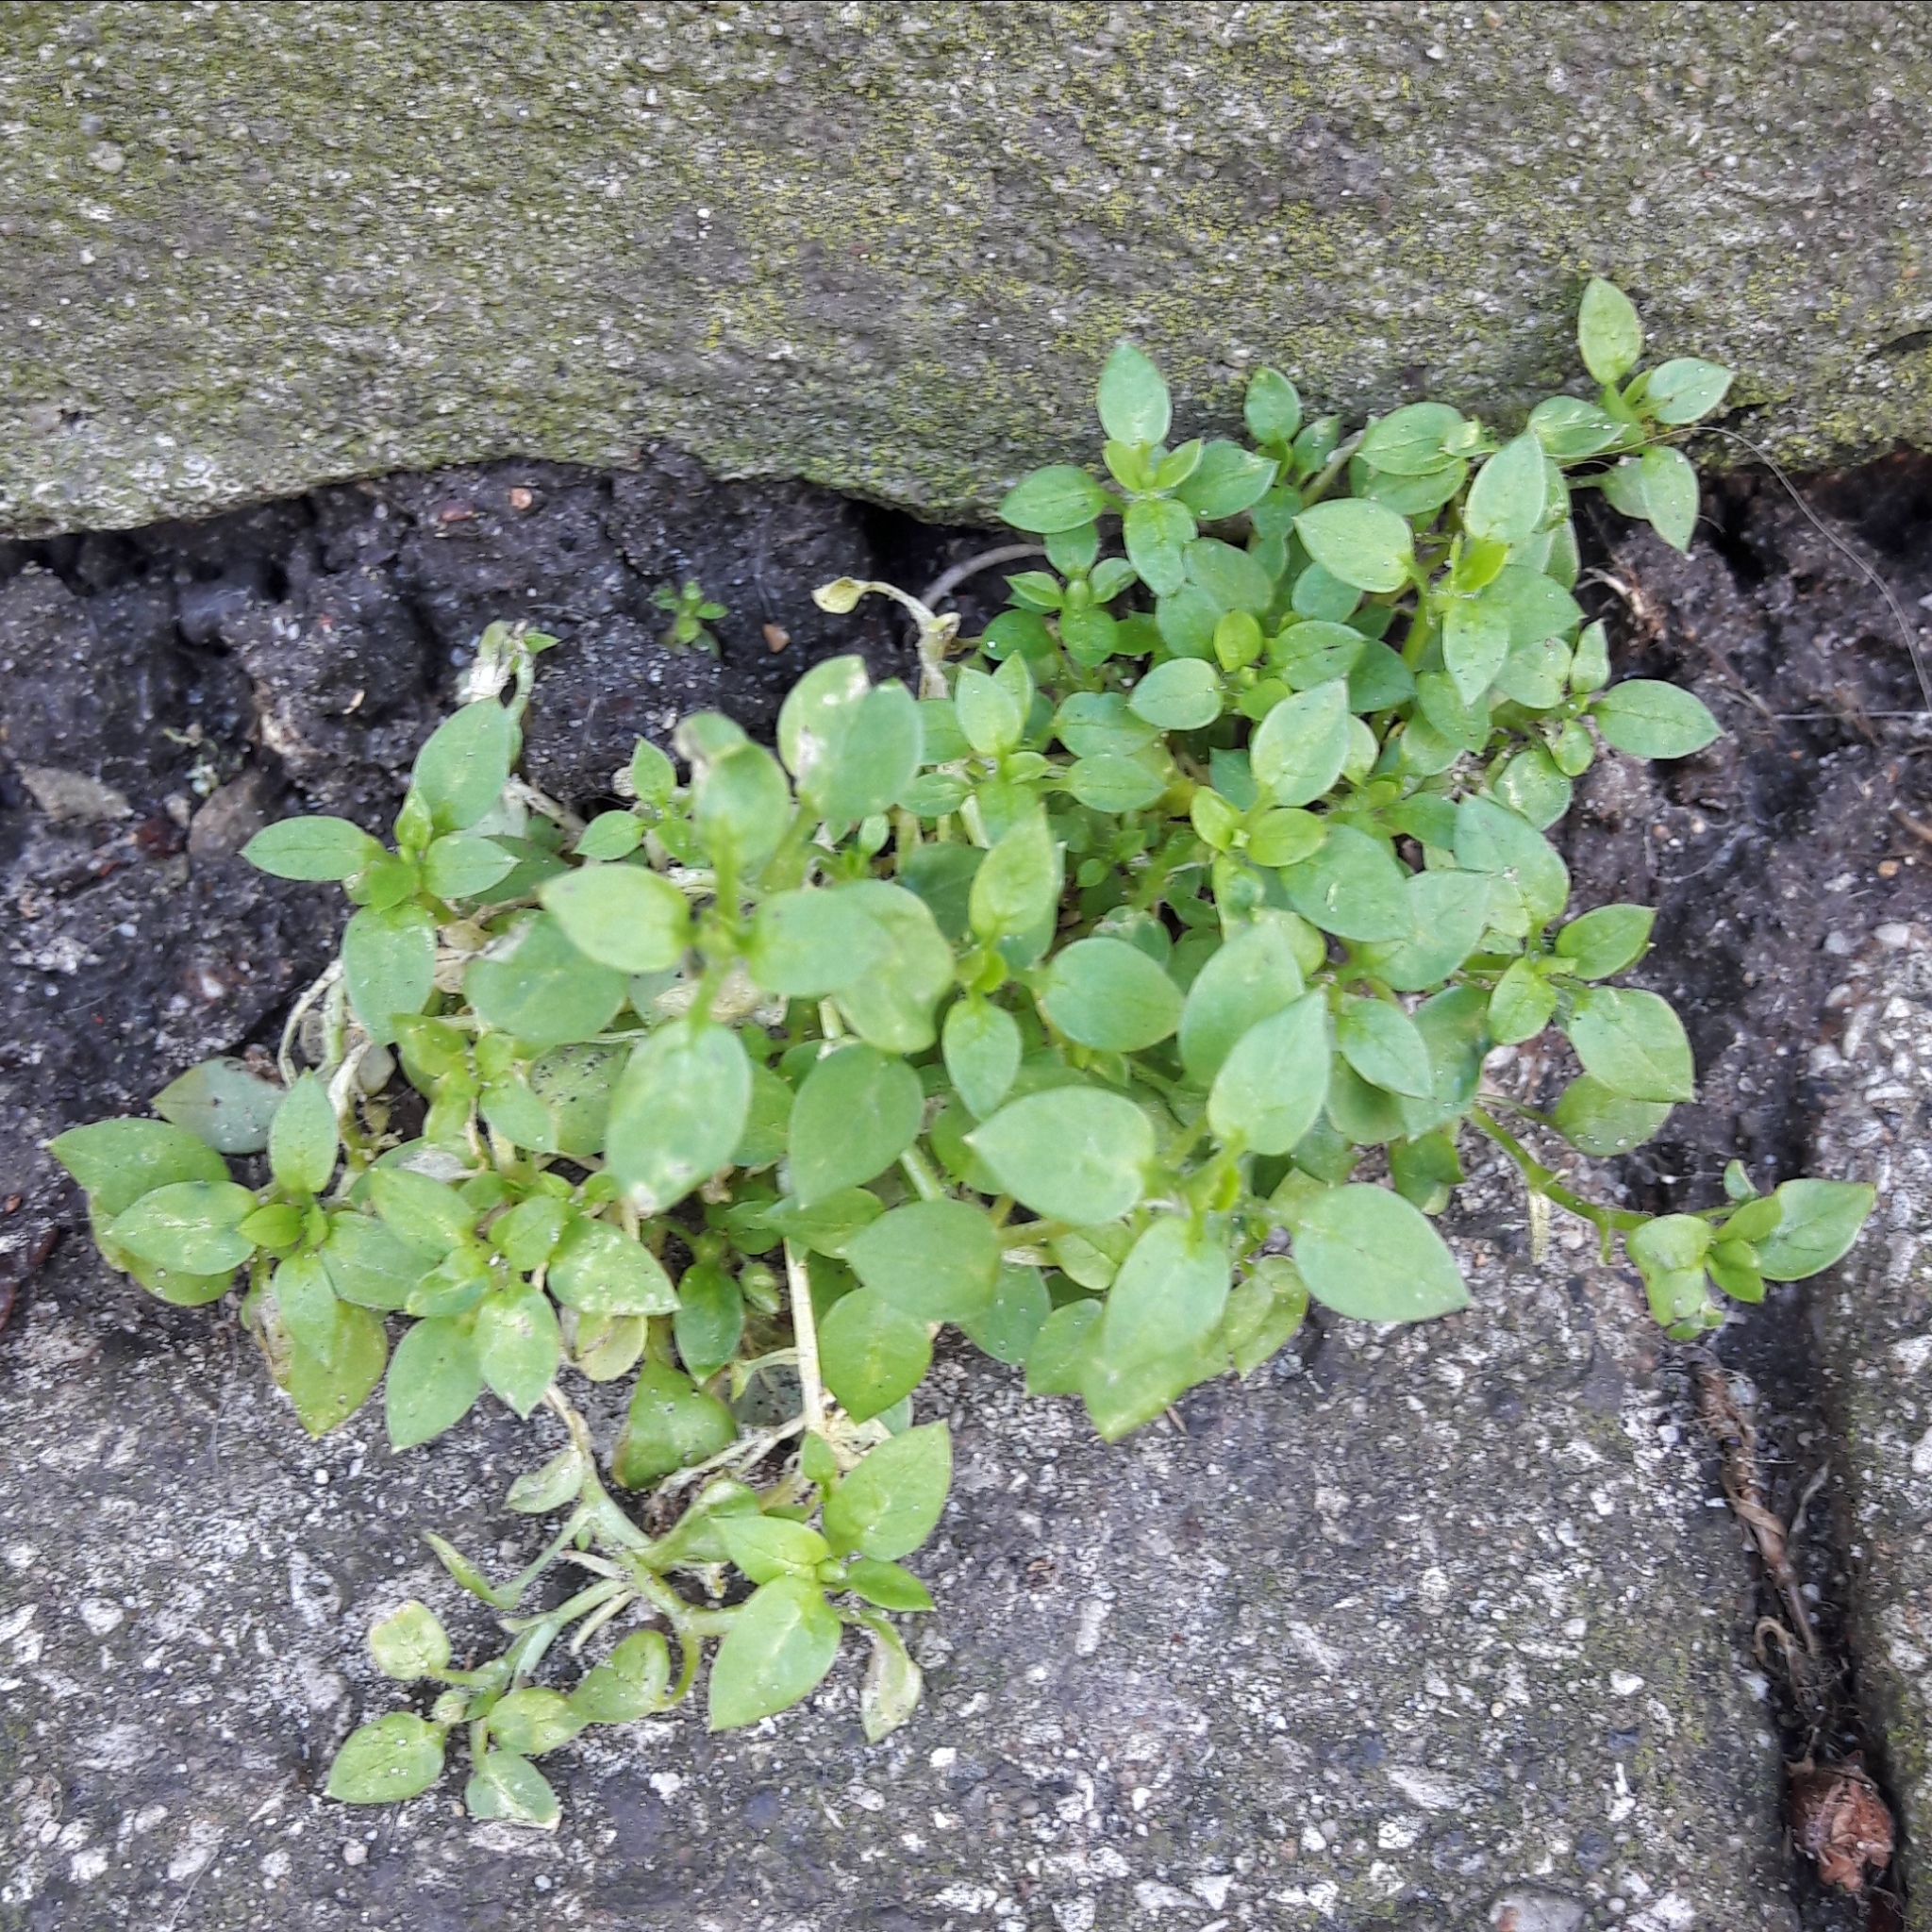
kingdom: Plantae
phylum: Tracheophyta
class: Magnoliopsida
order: Caryophyllales
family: Caryophyllaceae
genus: Stellaria
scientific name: Stellaria media
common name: Common chickweed
